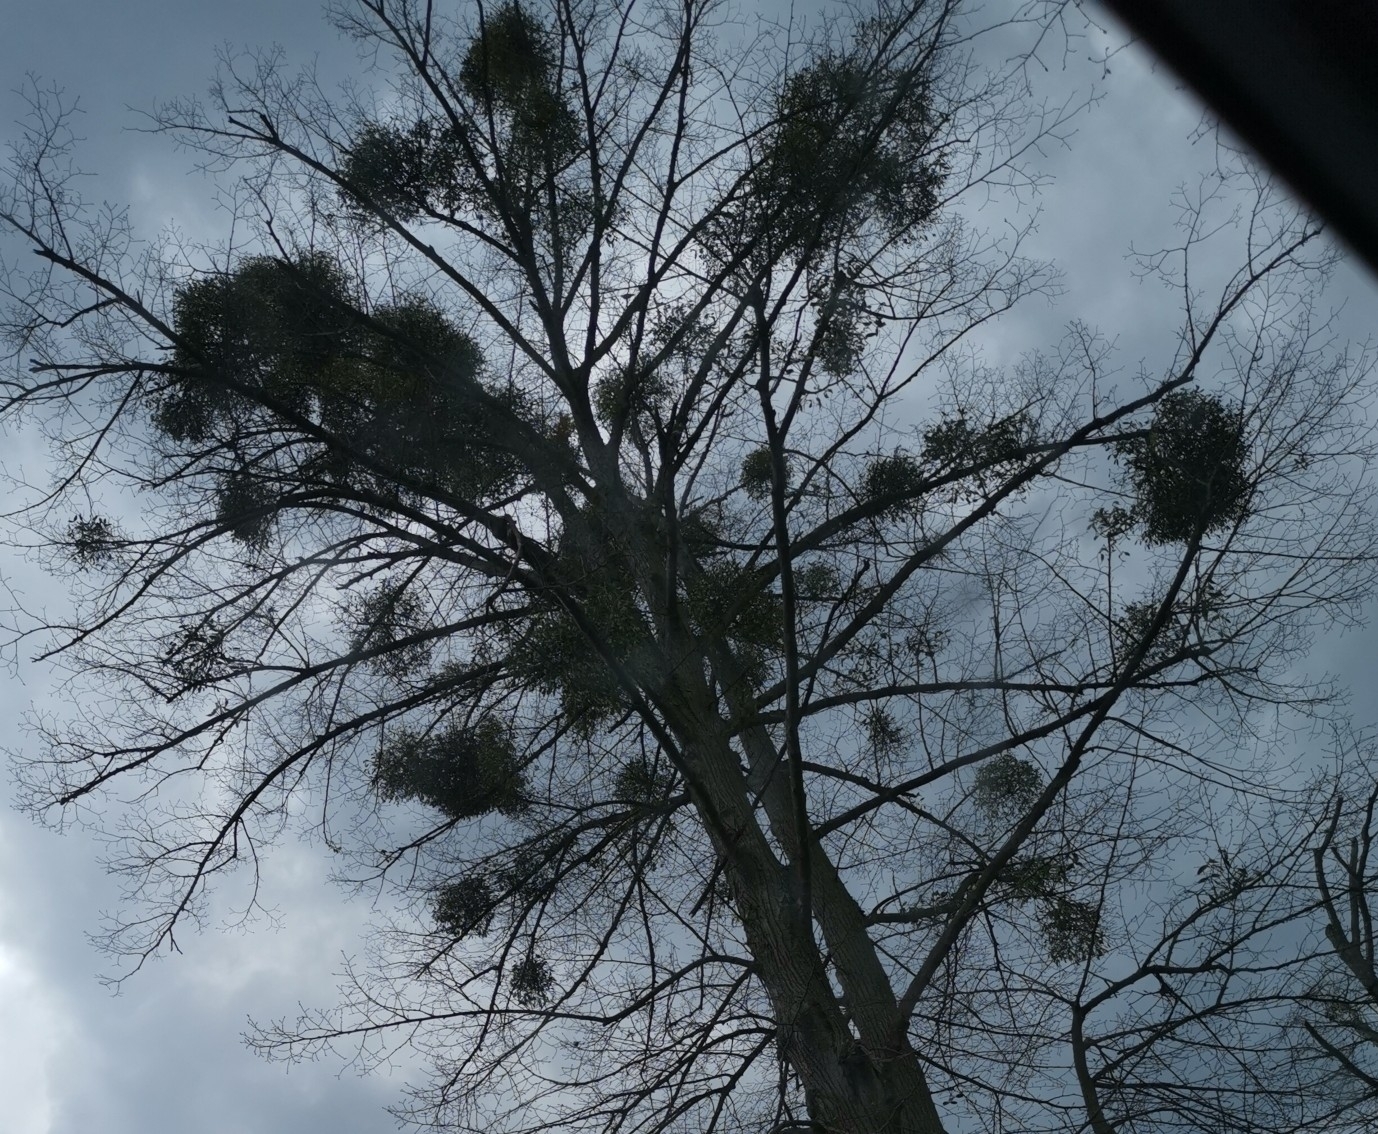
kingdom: Plantae
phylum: Tracheophyta
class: Magnoliopsida
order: Santalales
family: Viscaceae
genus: Viscum
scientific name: Viscum album
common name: Mistletoe
